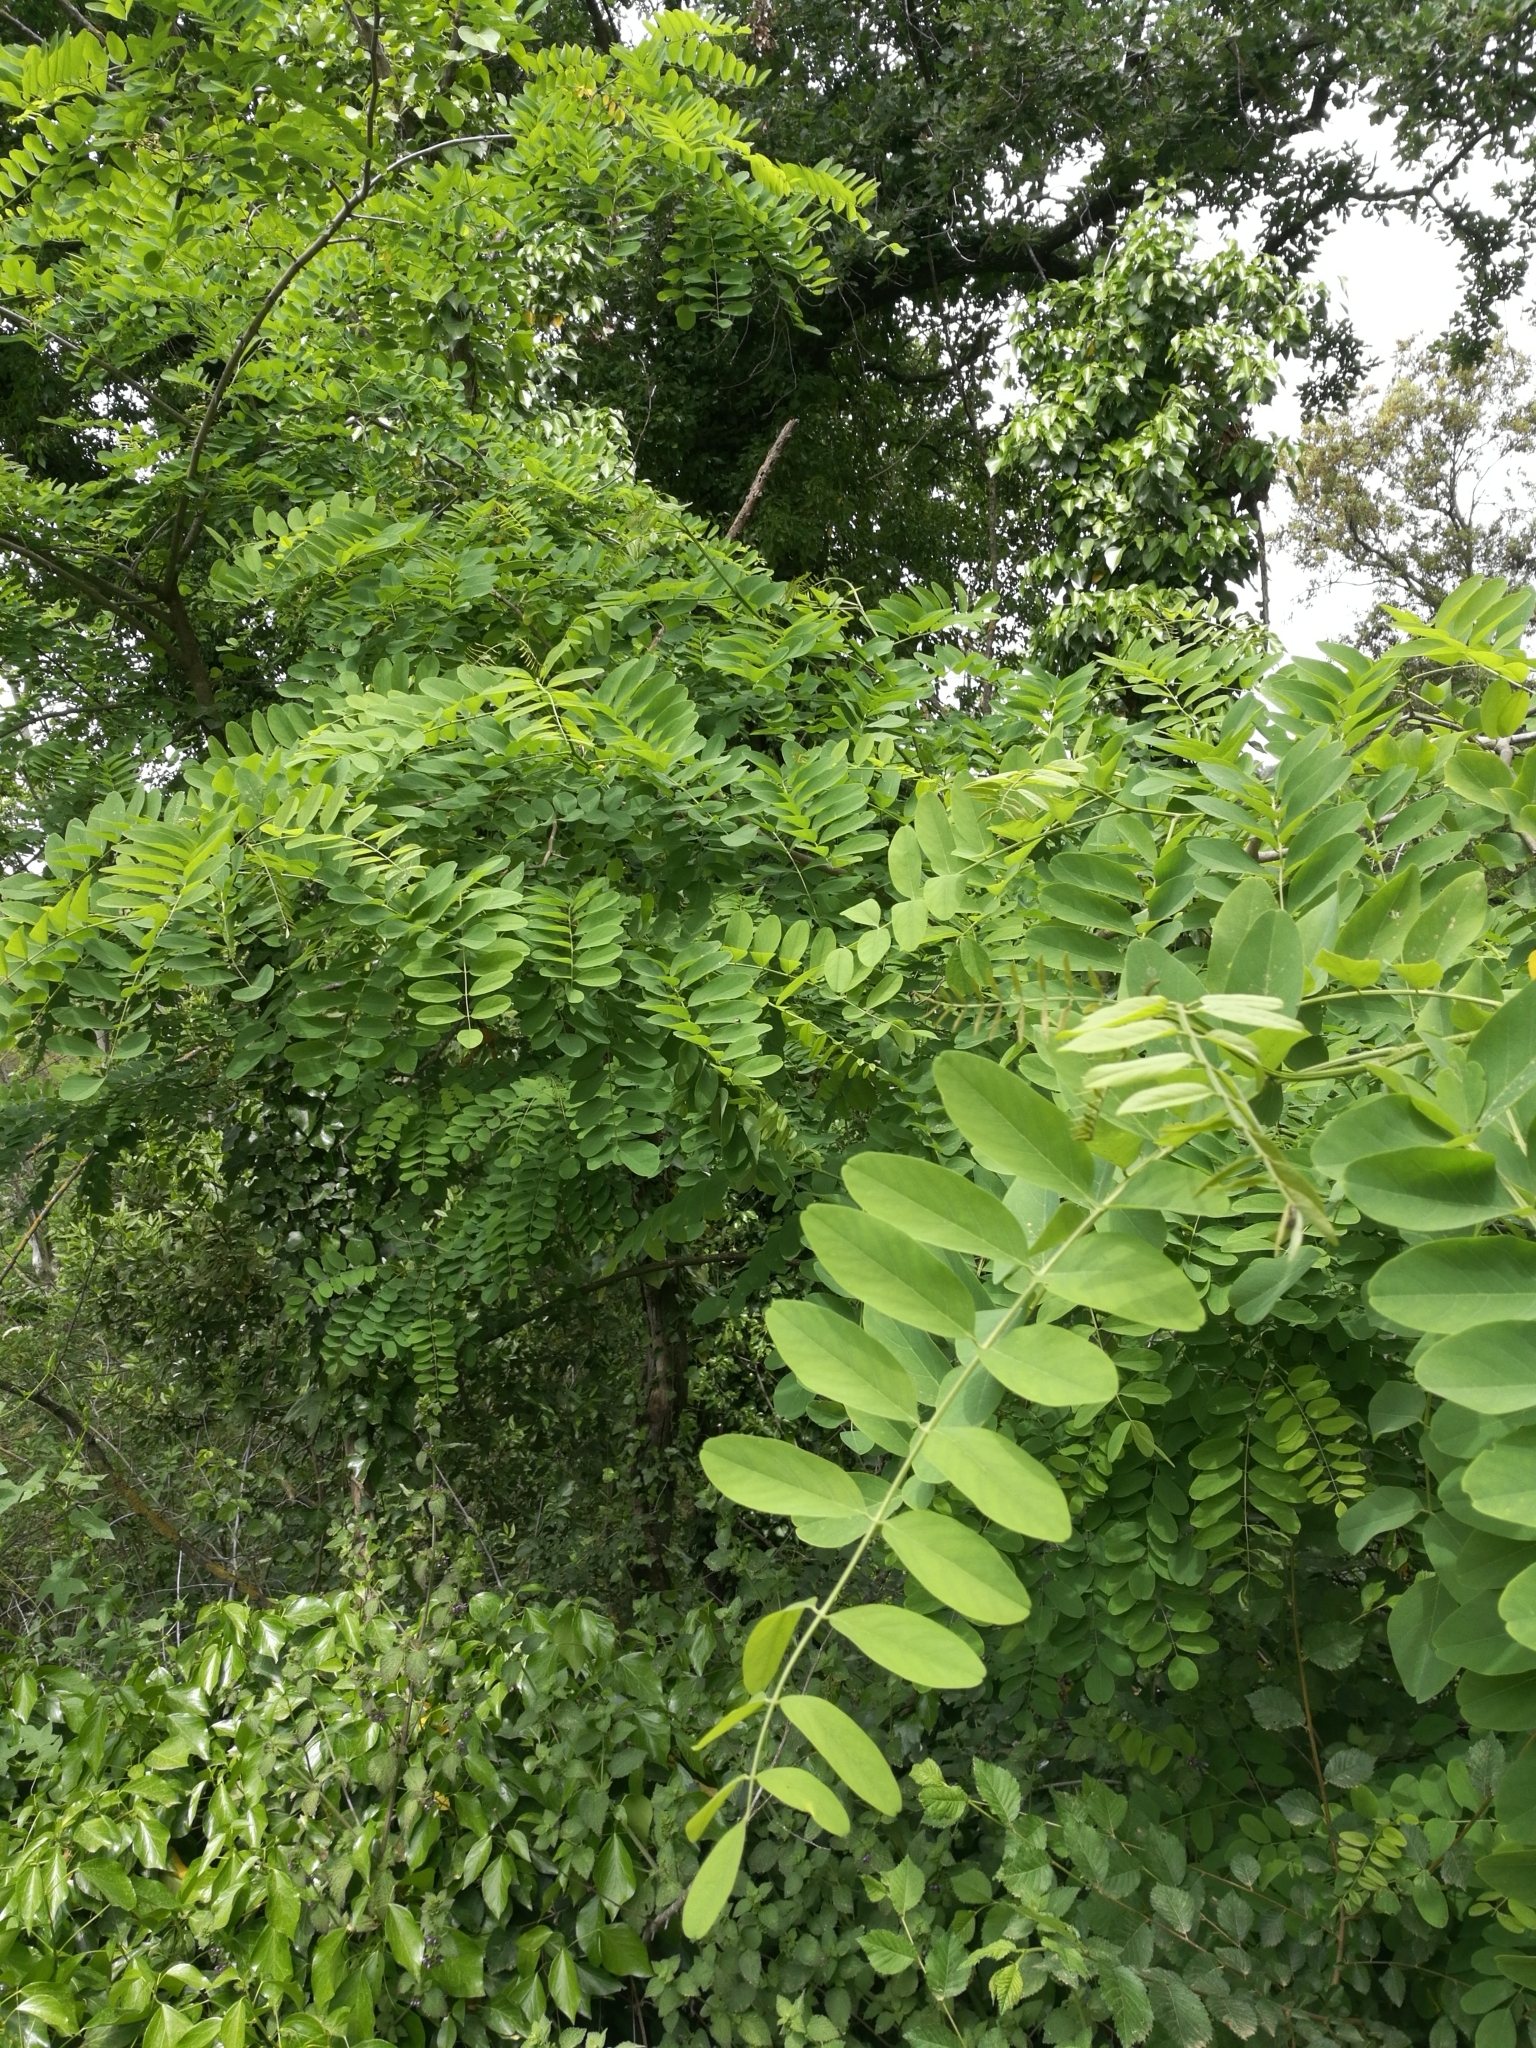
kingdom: Plantae
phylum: Tracheophyta
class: Magnoliopsida
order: Fabales
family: Fabaceae
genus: Robinia
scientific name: Robinia pseudoacacia
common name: Black locust
